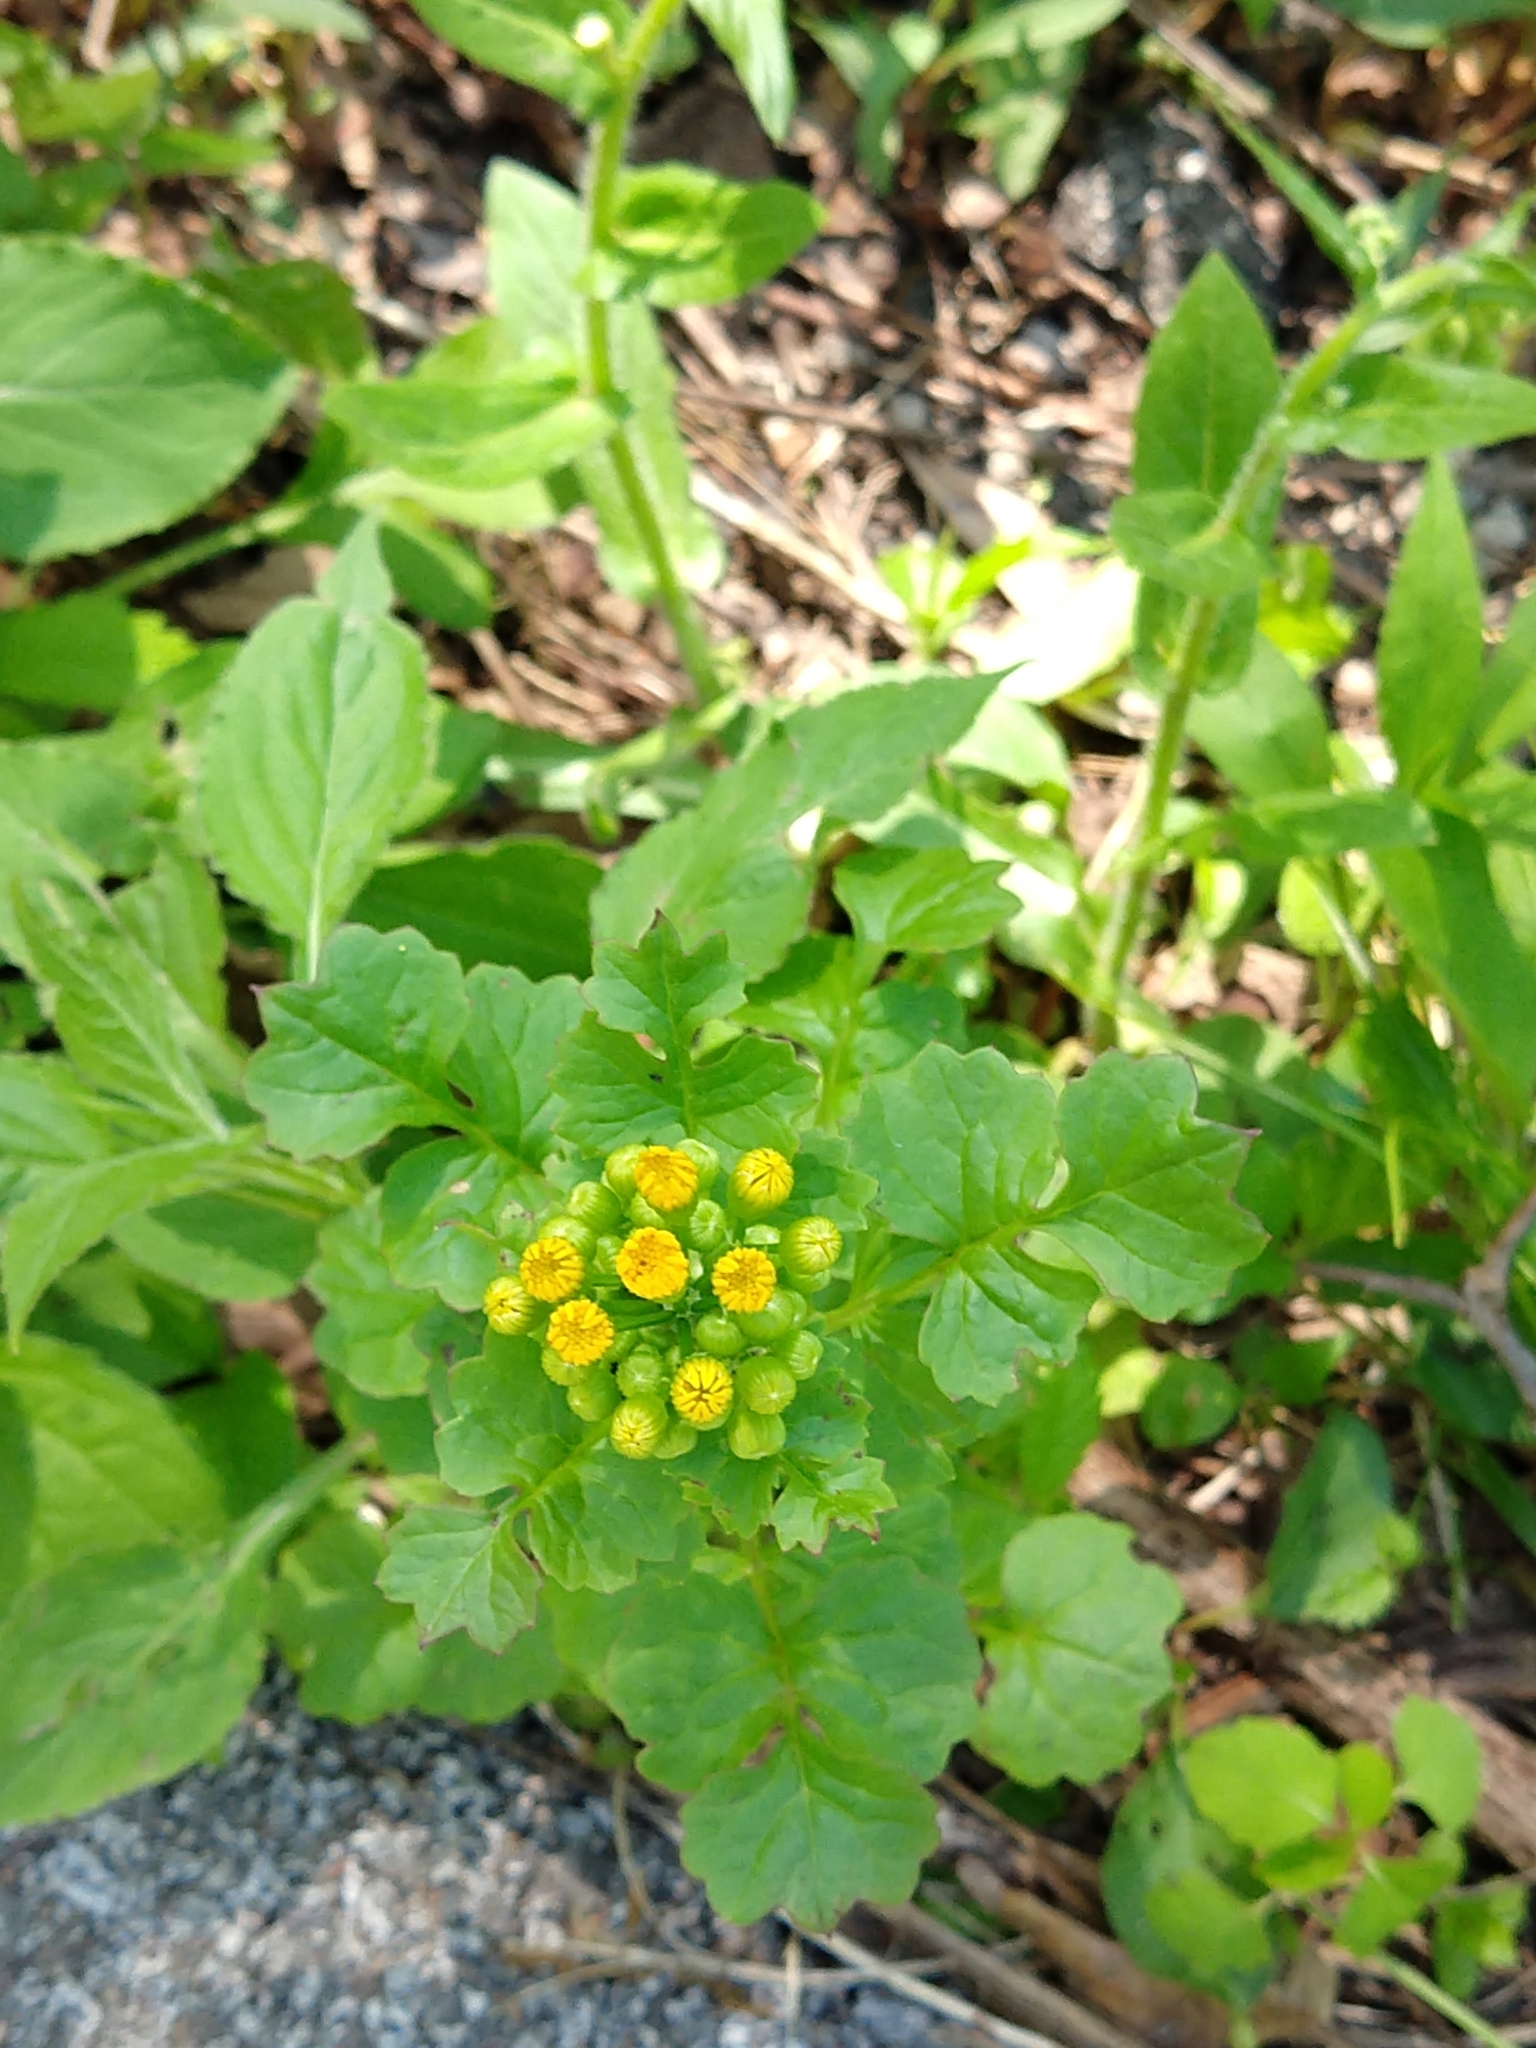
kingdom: Plantae
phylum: Tracheophyta
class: Magnoliopsida
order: Asterales
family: Asteraceae
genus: Packera
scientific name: Packera glabella
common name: Butterweed
